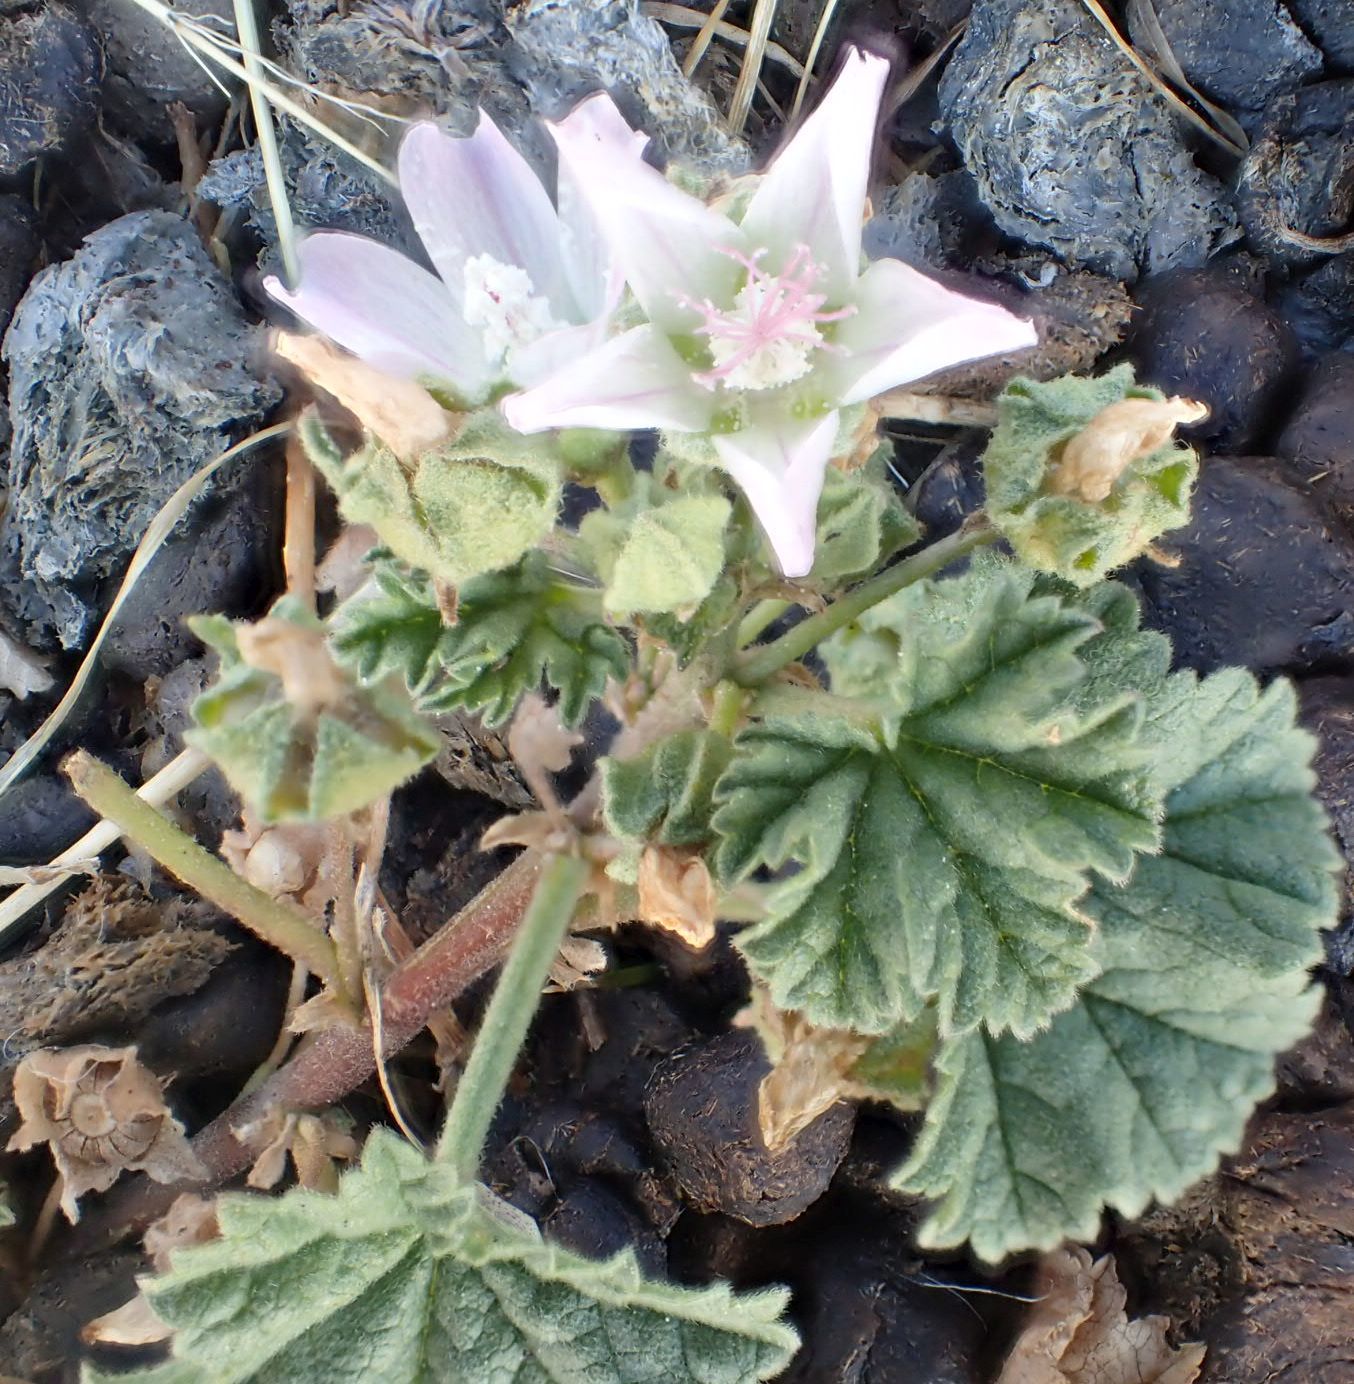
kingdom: Plantae
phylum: Tracheophyta
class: Magnoliopsida
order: Malvales
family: Malvaceae
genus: Malva
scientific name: Malva neglecta
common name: Common mallow
